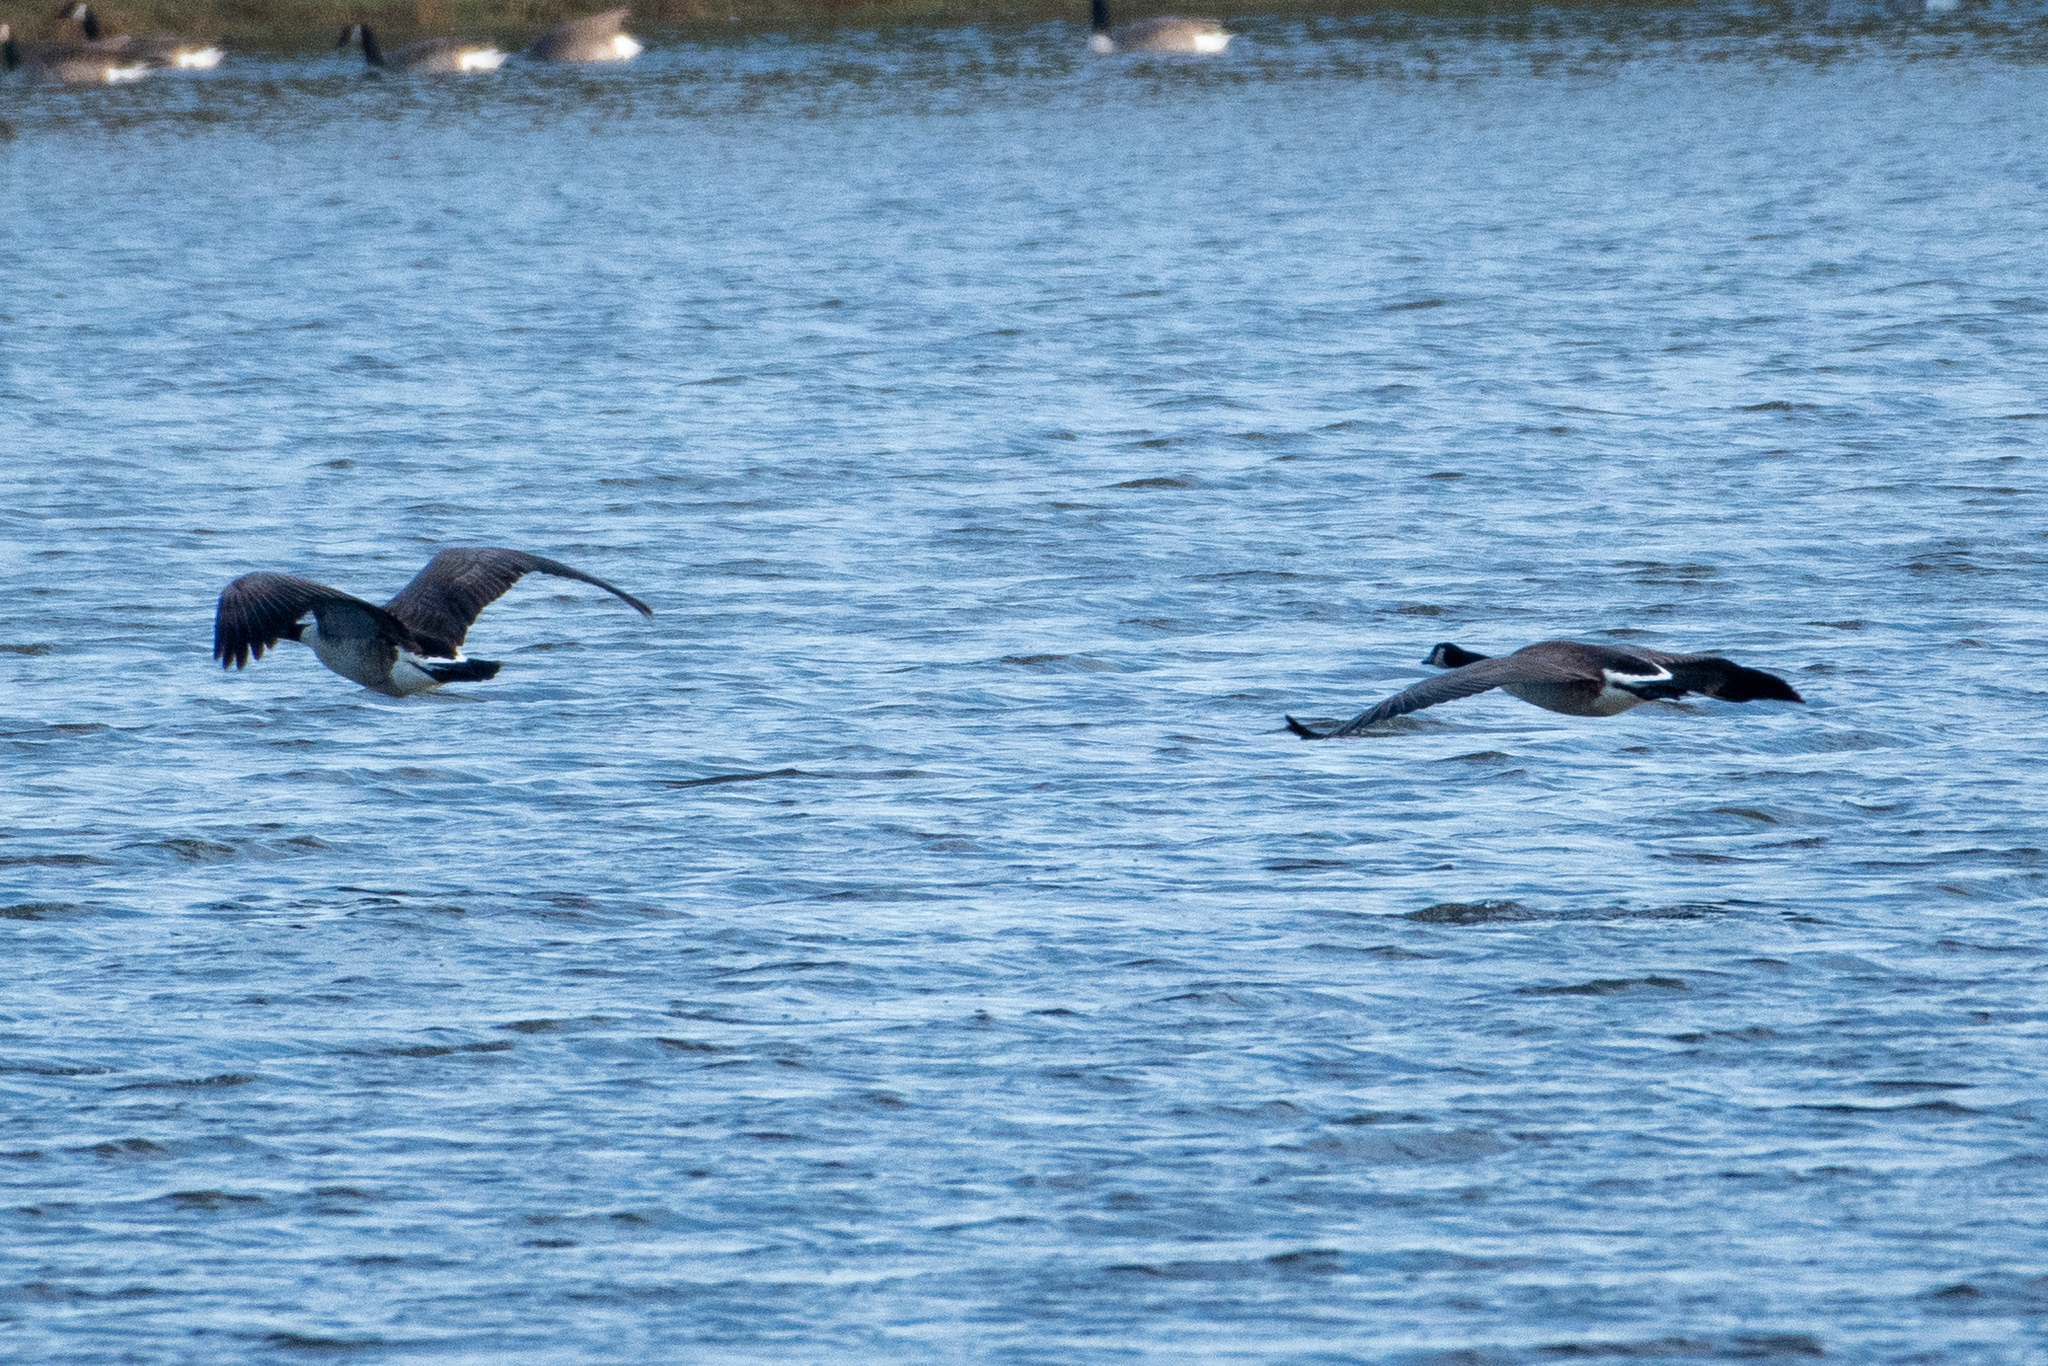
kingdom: Animalia
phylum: Chordata
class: Aves
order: Anseriformes
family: Anatidae
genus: Branta
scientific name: Branta canadensis
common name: Canada goose
